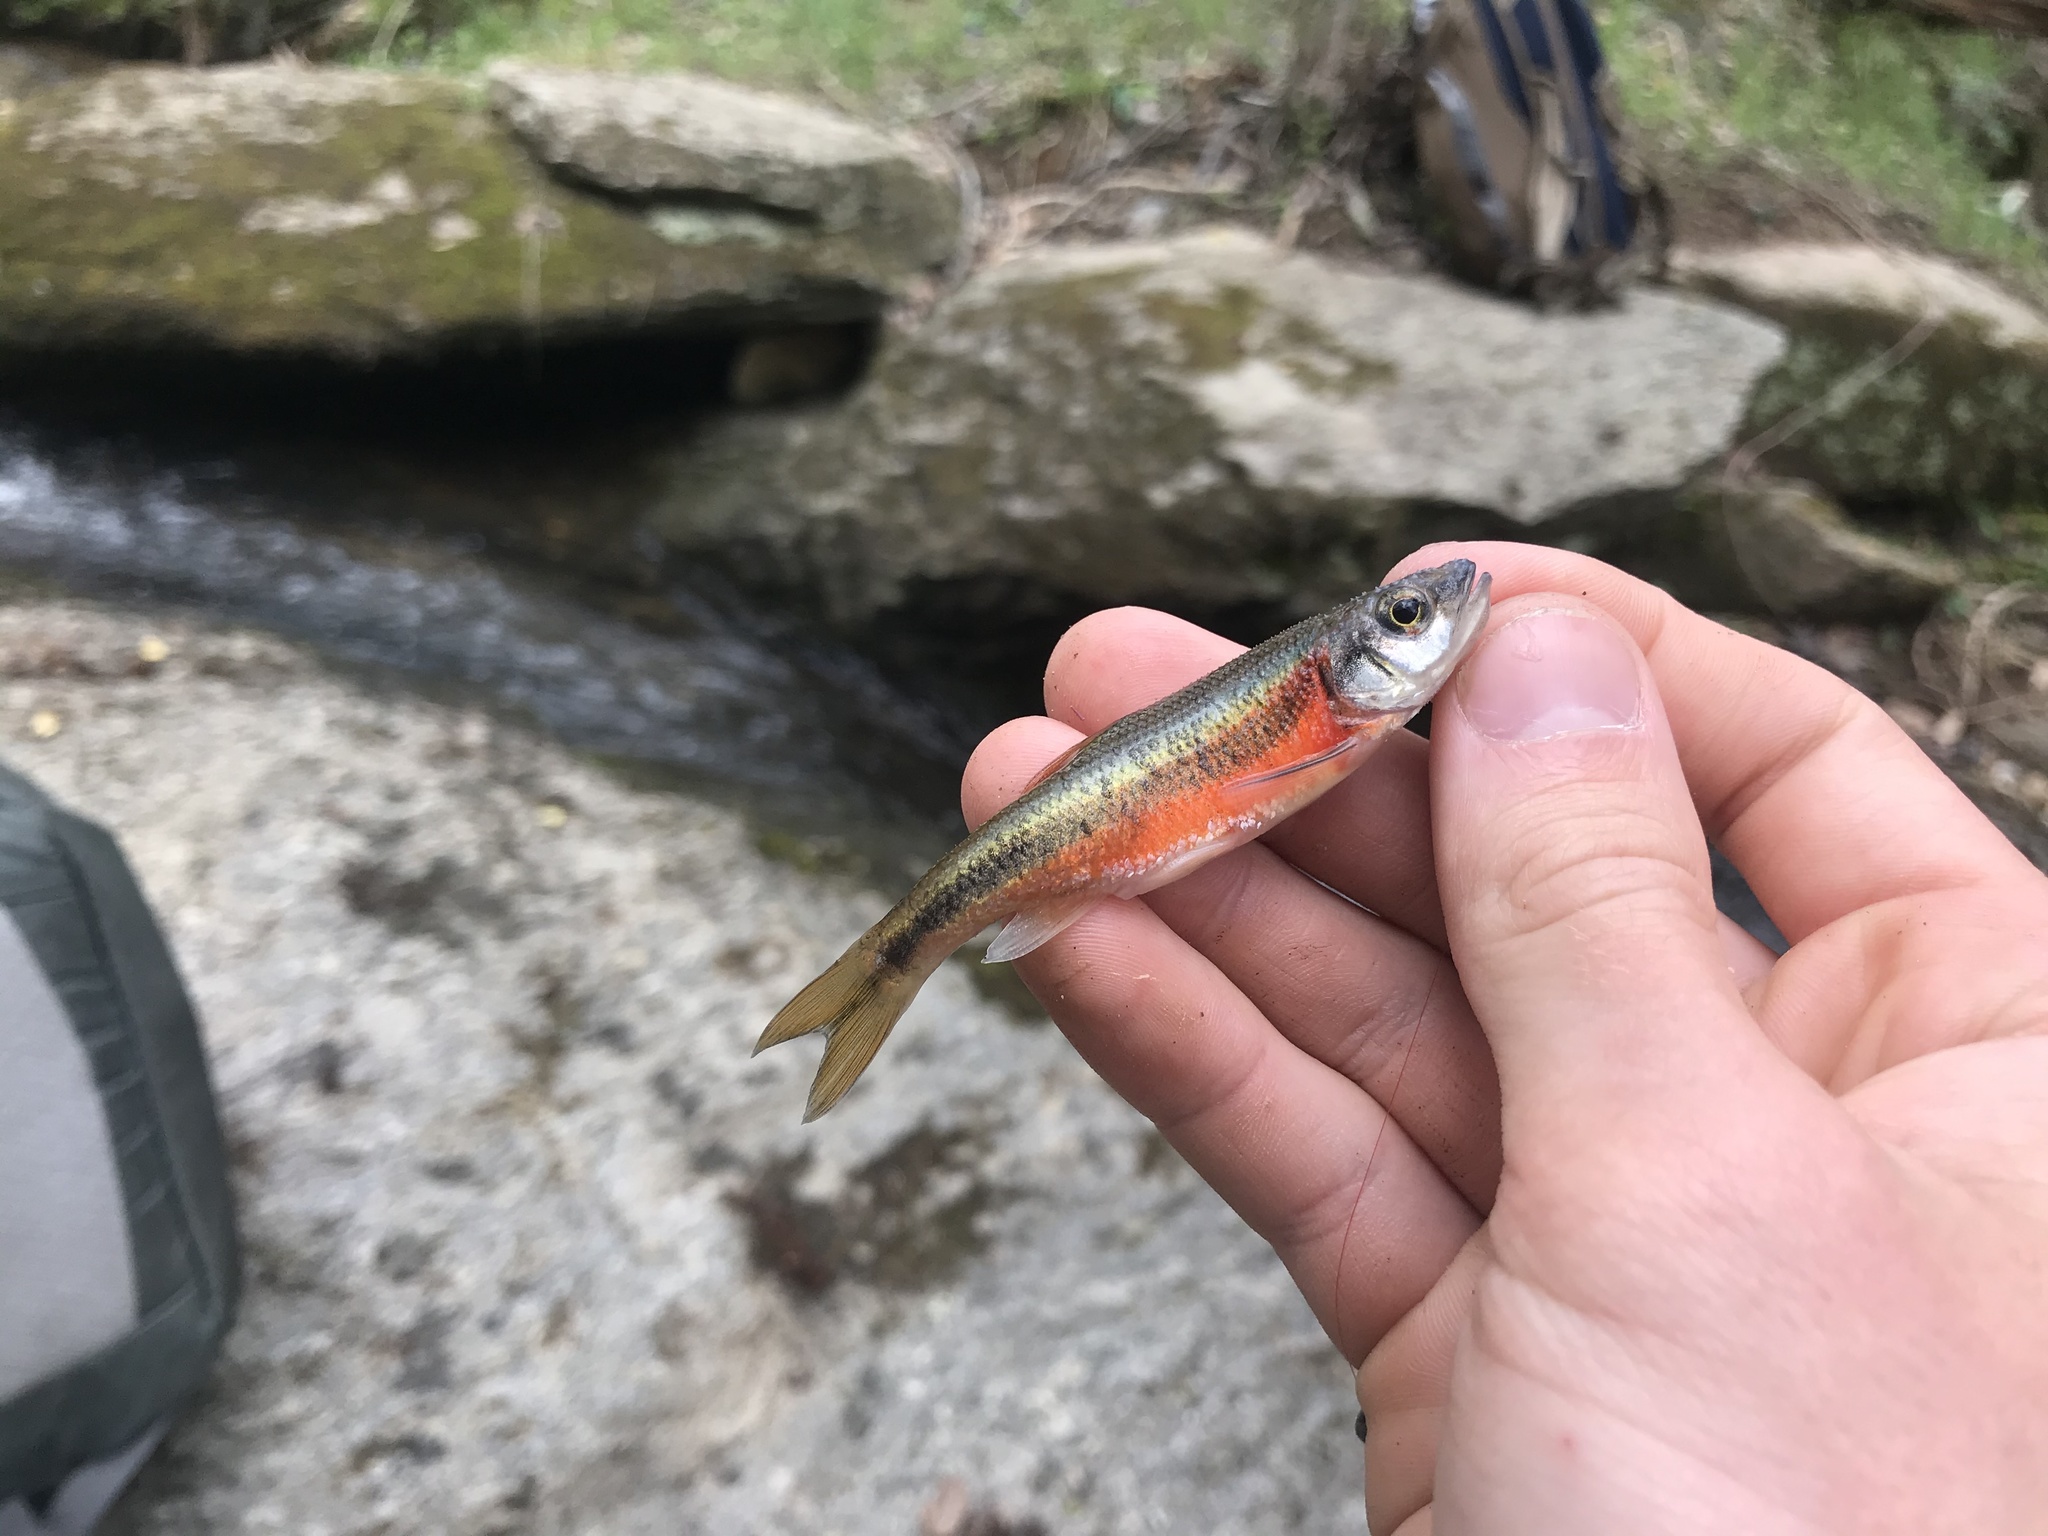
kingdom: Animalia
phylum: Chordata
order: Cypriniformes
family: Cyprinidae
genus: Clinostomus
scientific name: Clinostomus funduloides
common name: Rosyside dace
